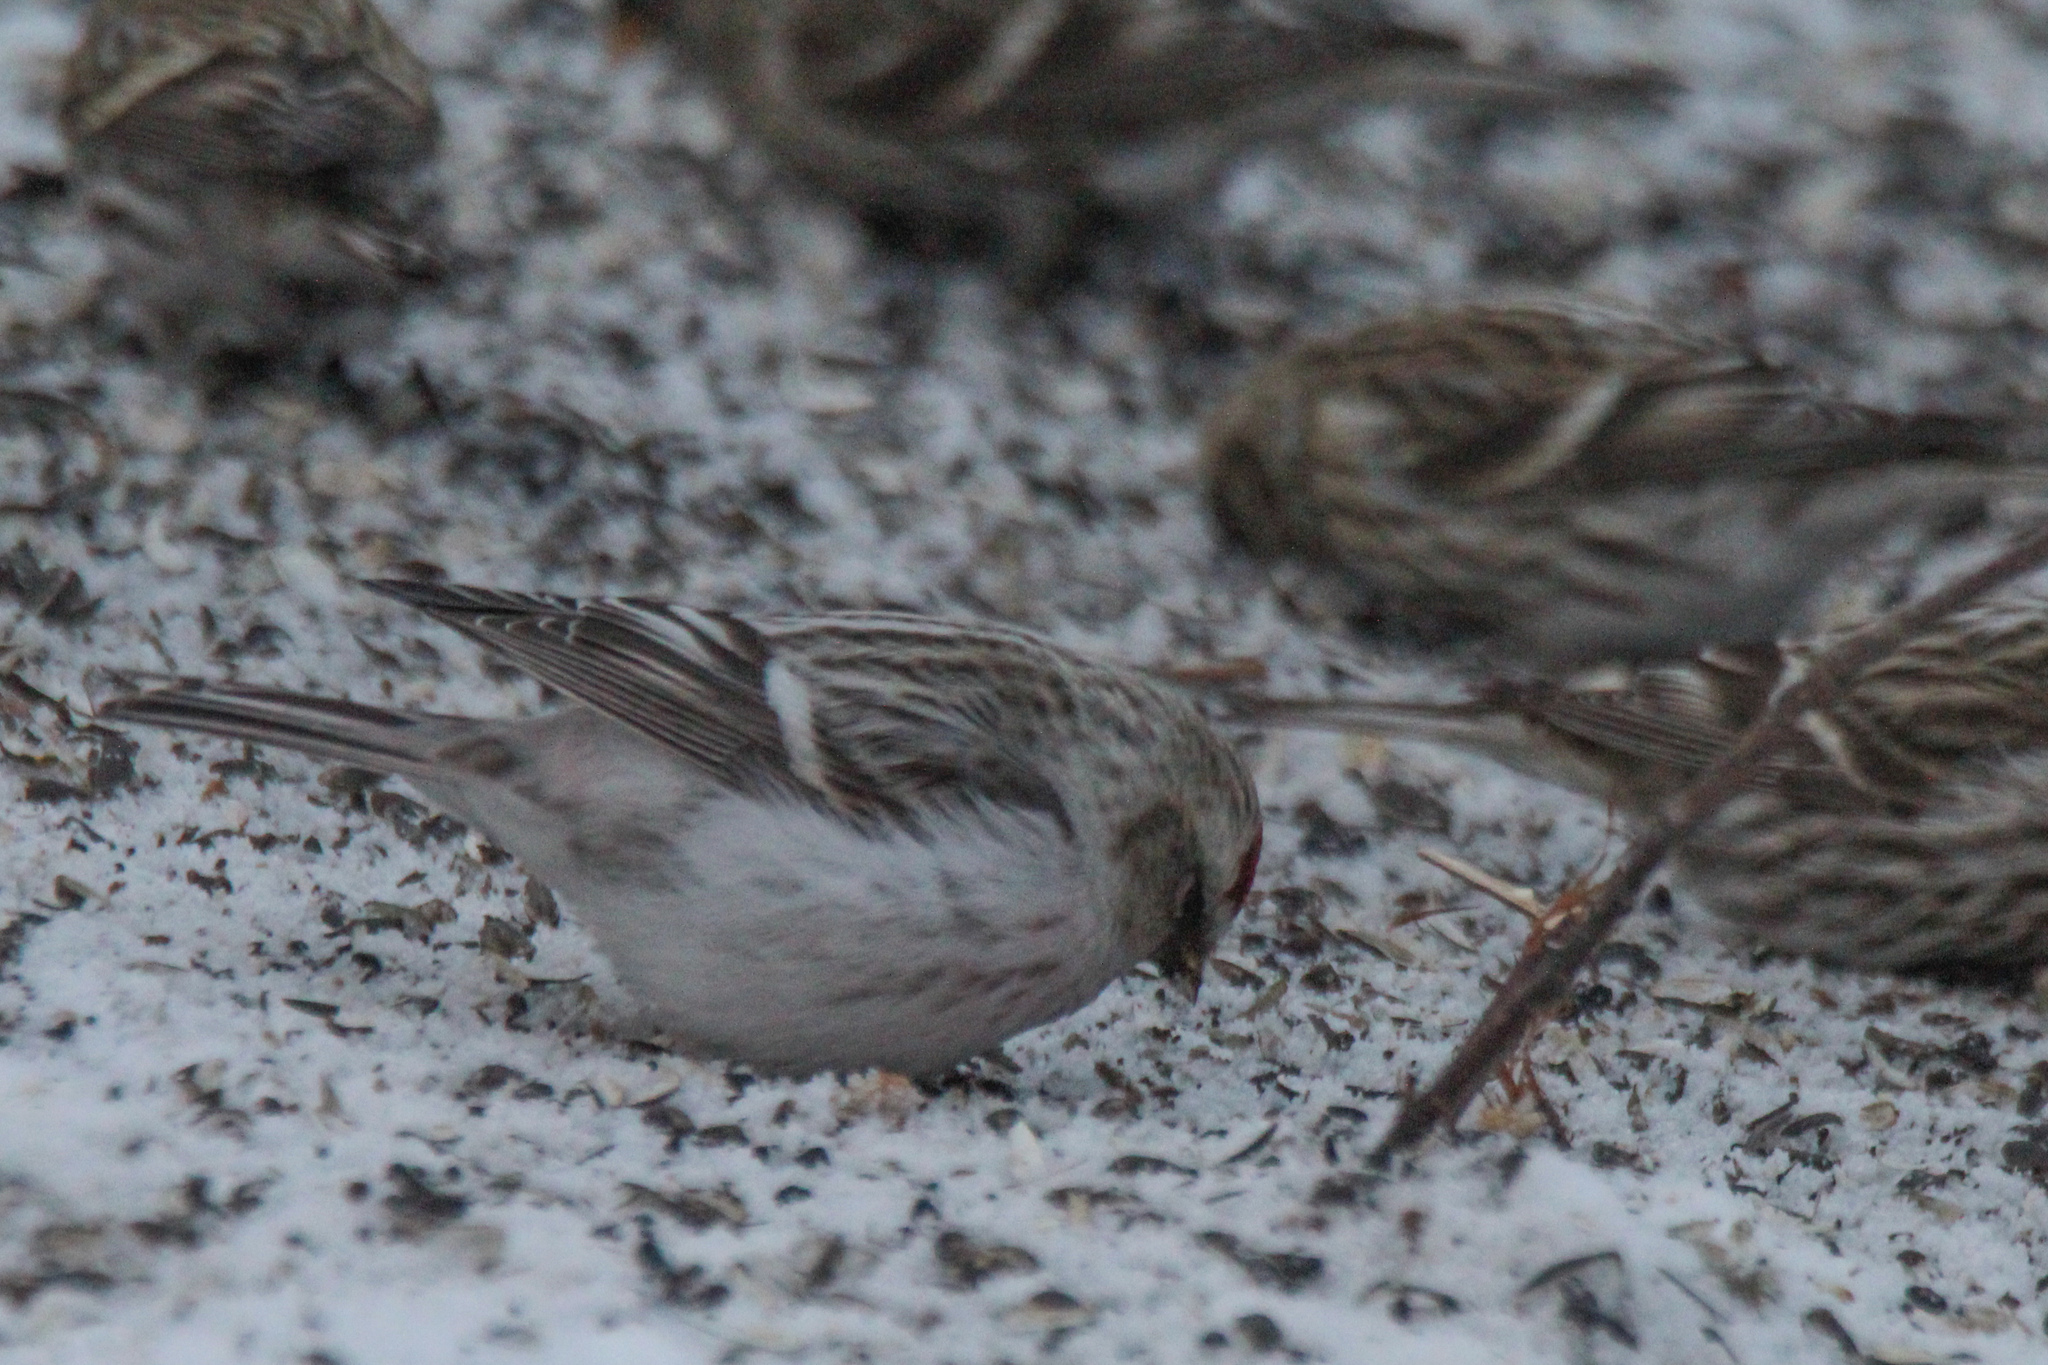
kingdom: Animalia
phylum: Chordata
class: Aves
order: Passeriformes
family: Fringillidae
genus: Acanthis
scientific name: Acanthis hornemanni
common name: Arctic redpoll
